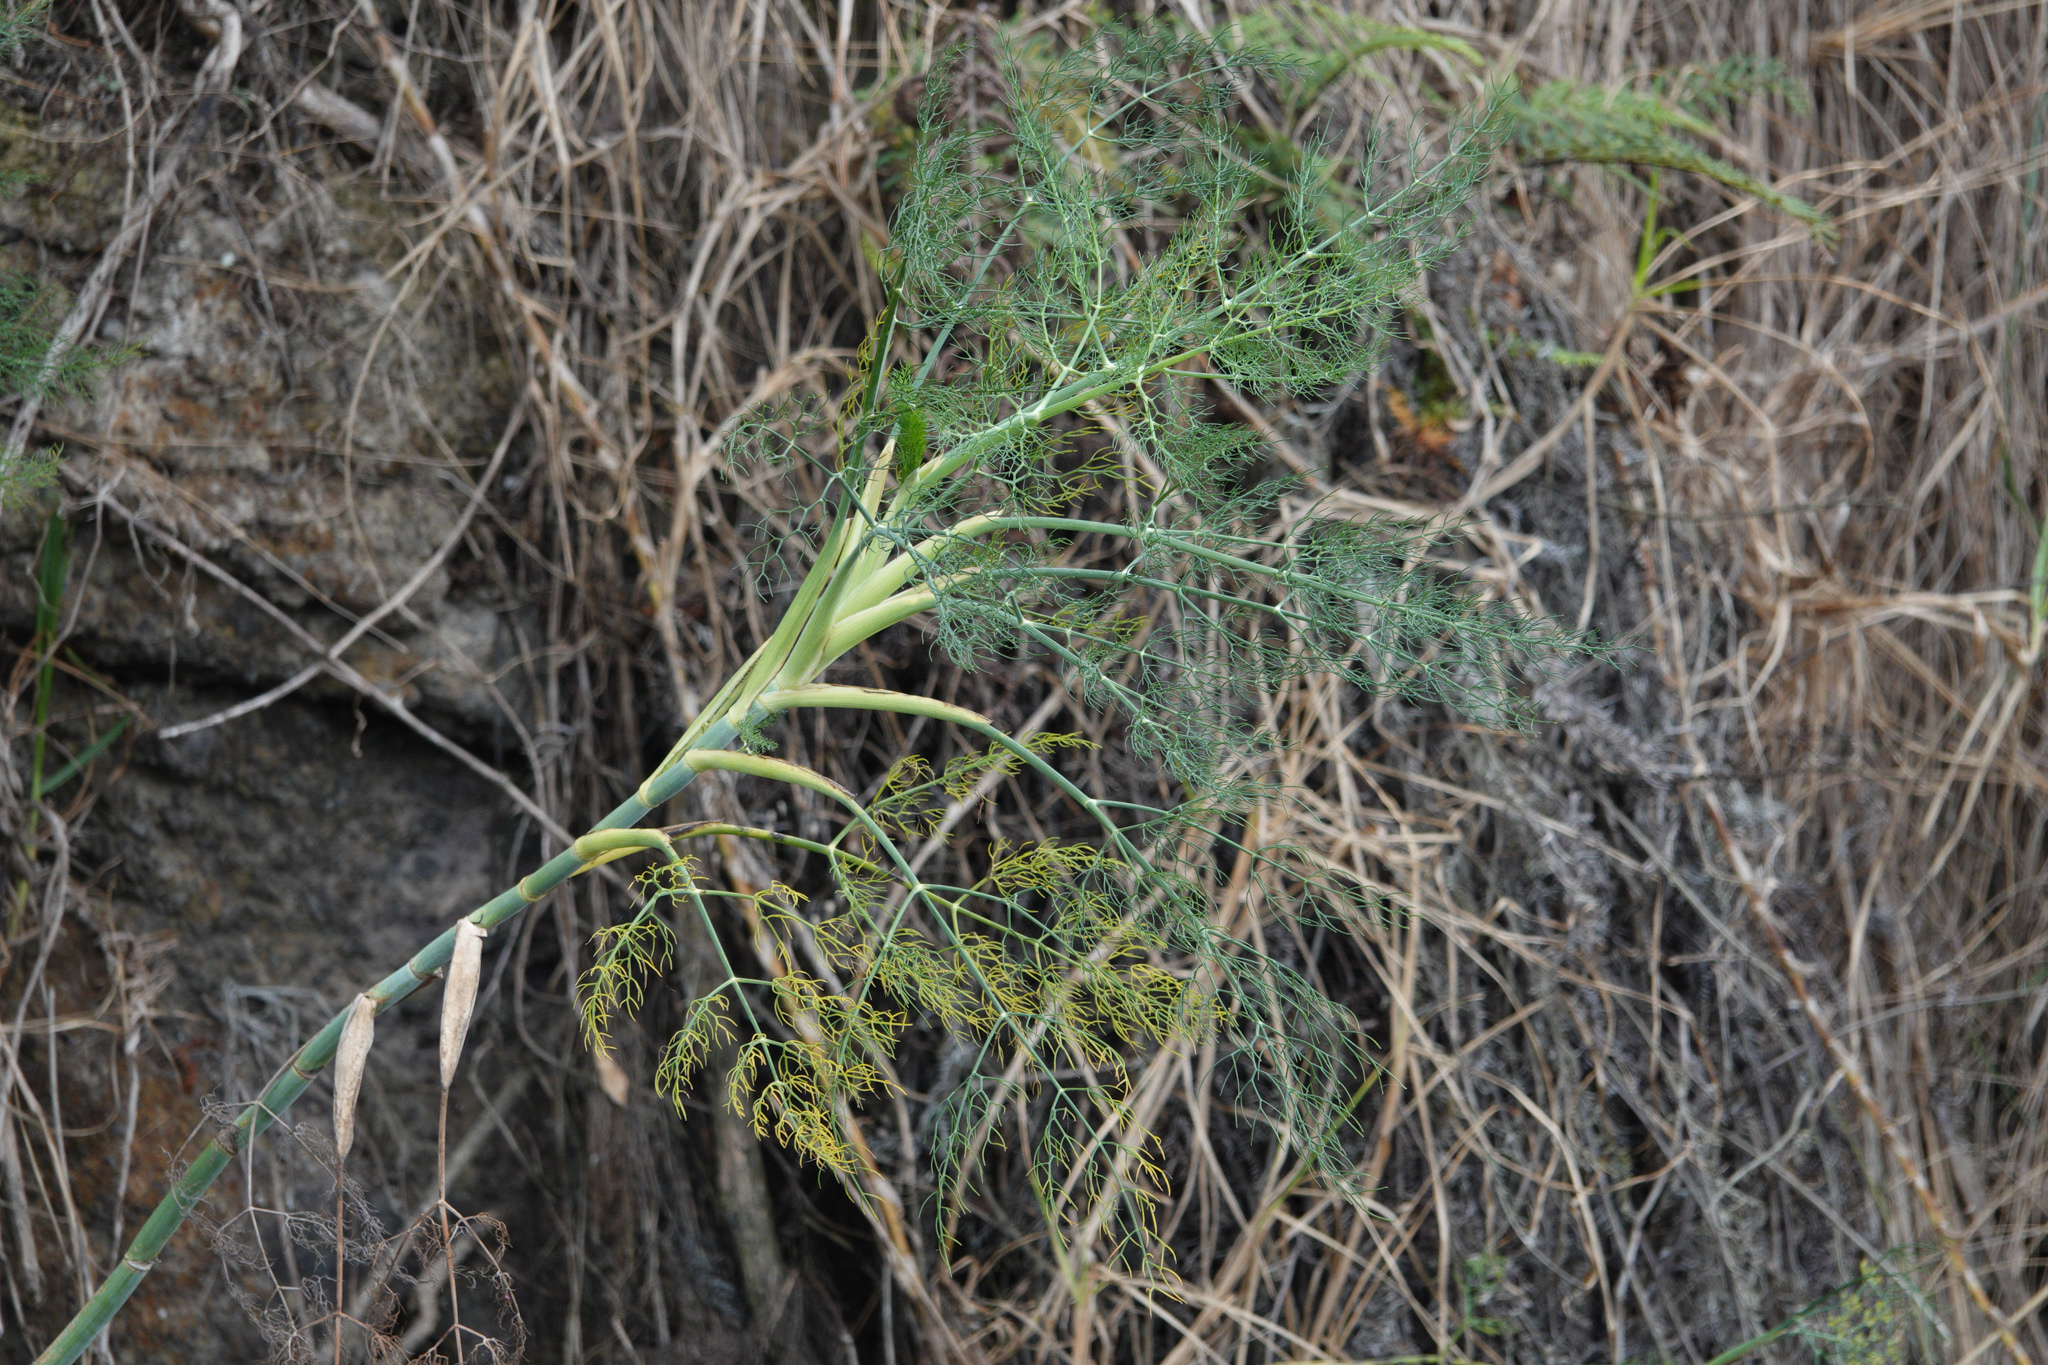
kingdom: Plantae
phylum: Tracheophyta
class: Magnoliopsida
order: Apiales
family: Apiaceae
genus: Foeniculum
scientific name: Foeniculum vulgare
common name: Fennel
